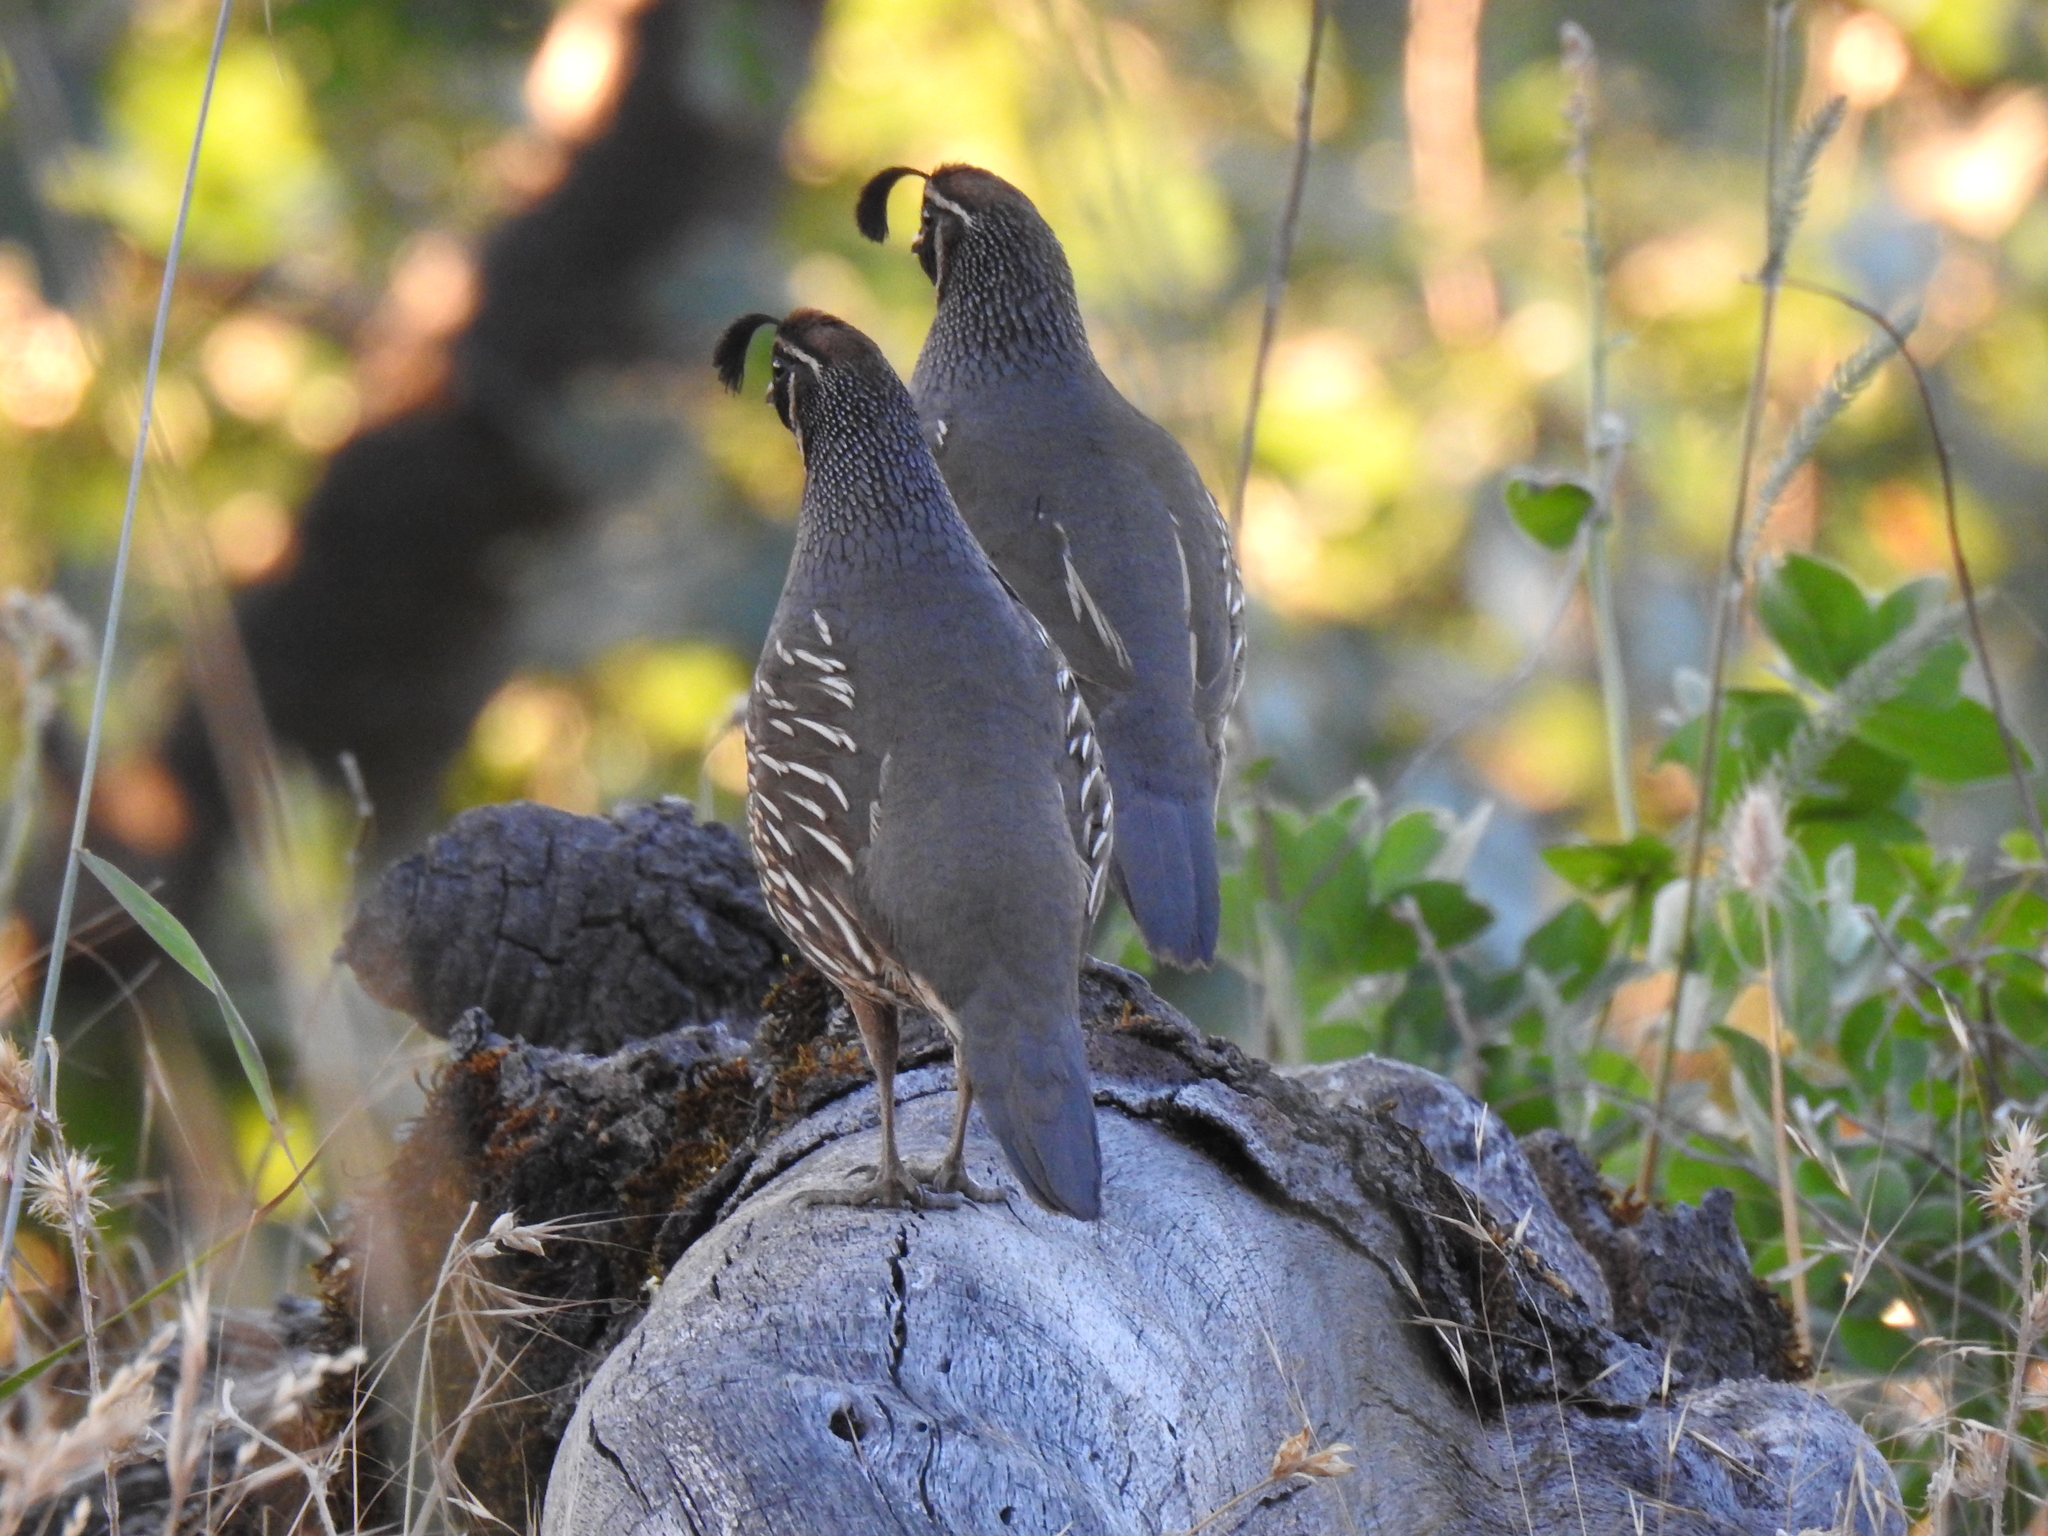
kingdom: Animalia
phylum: Chordata
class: Aves
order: Galliformes
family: Odontophoridae
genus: Callipepla
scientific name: Callipepla californica
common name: California quail
